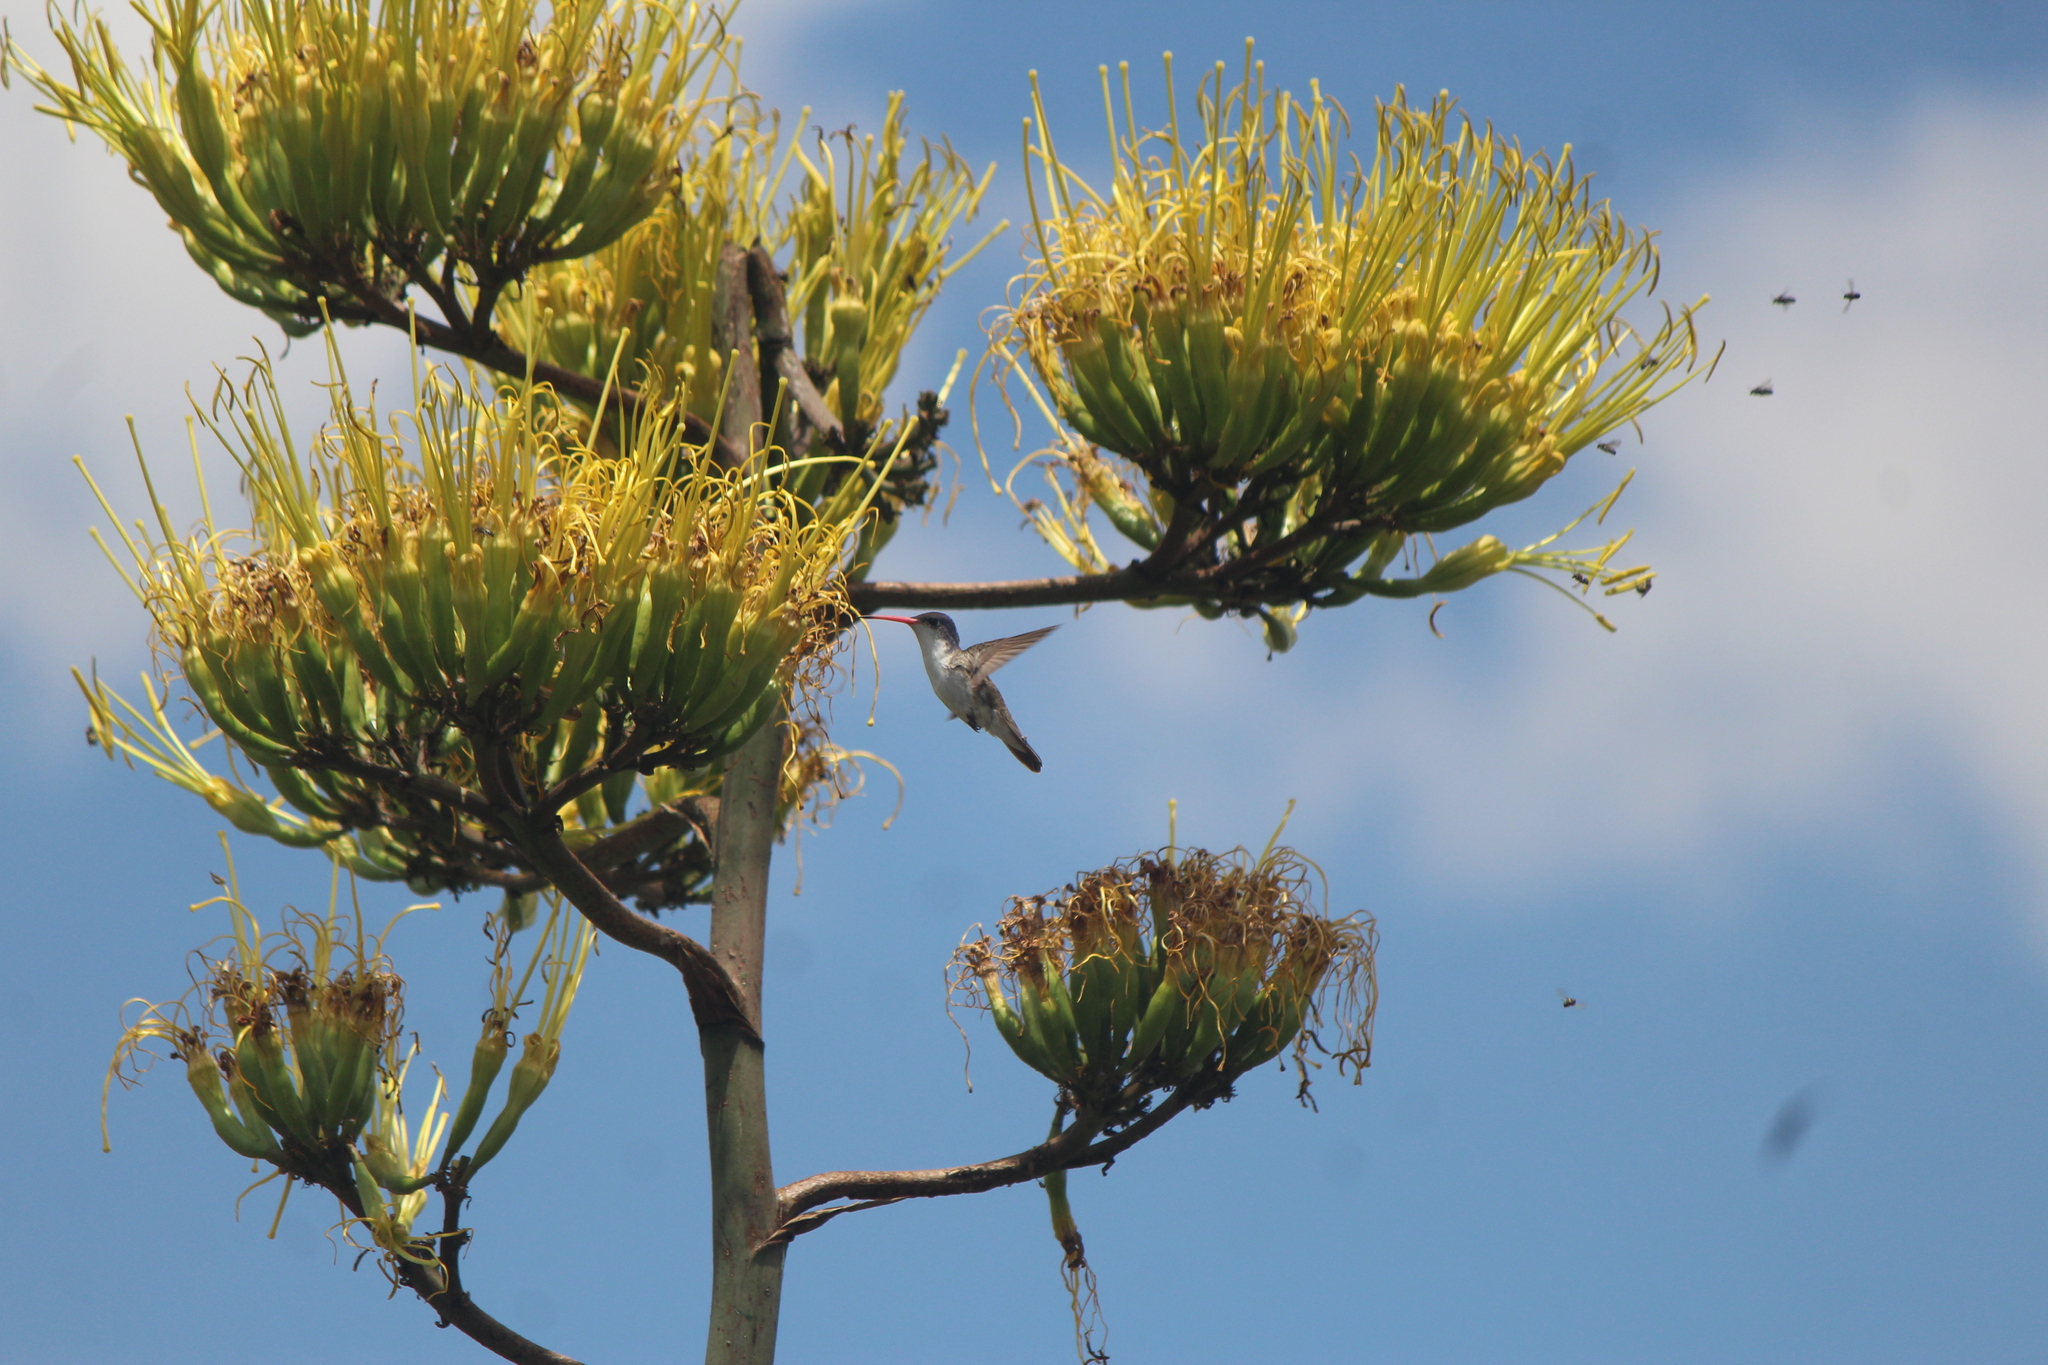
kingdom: Animalia
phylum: Chordata
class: Aves
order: Apodiformes
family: Trochilidae
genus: Leucolia
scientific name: Leucolia violiceps
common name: Violet-crowned hummingbird
